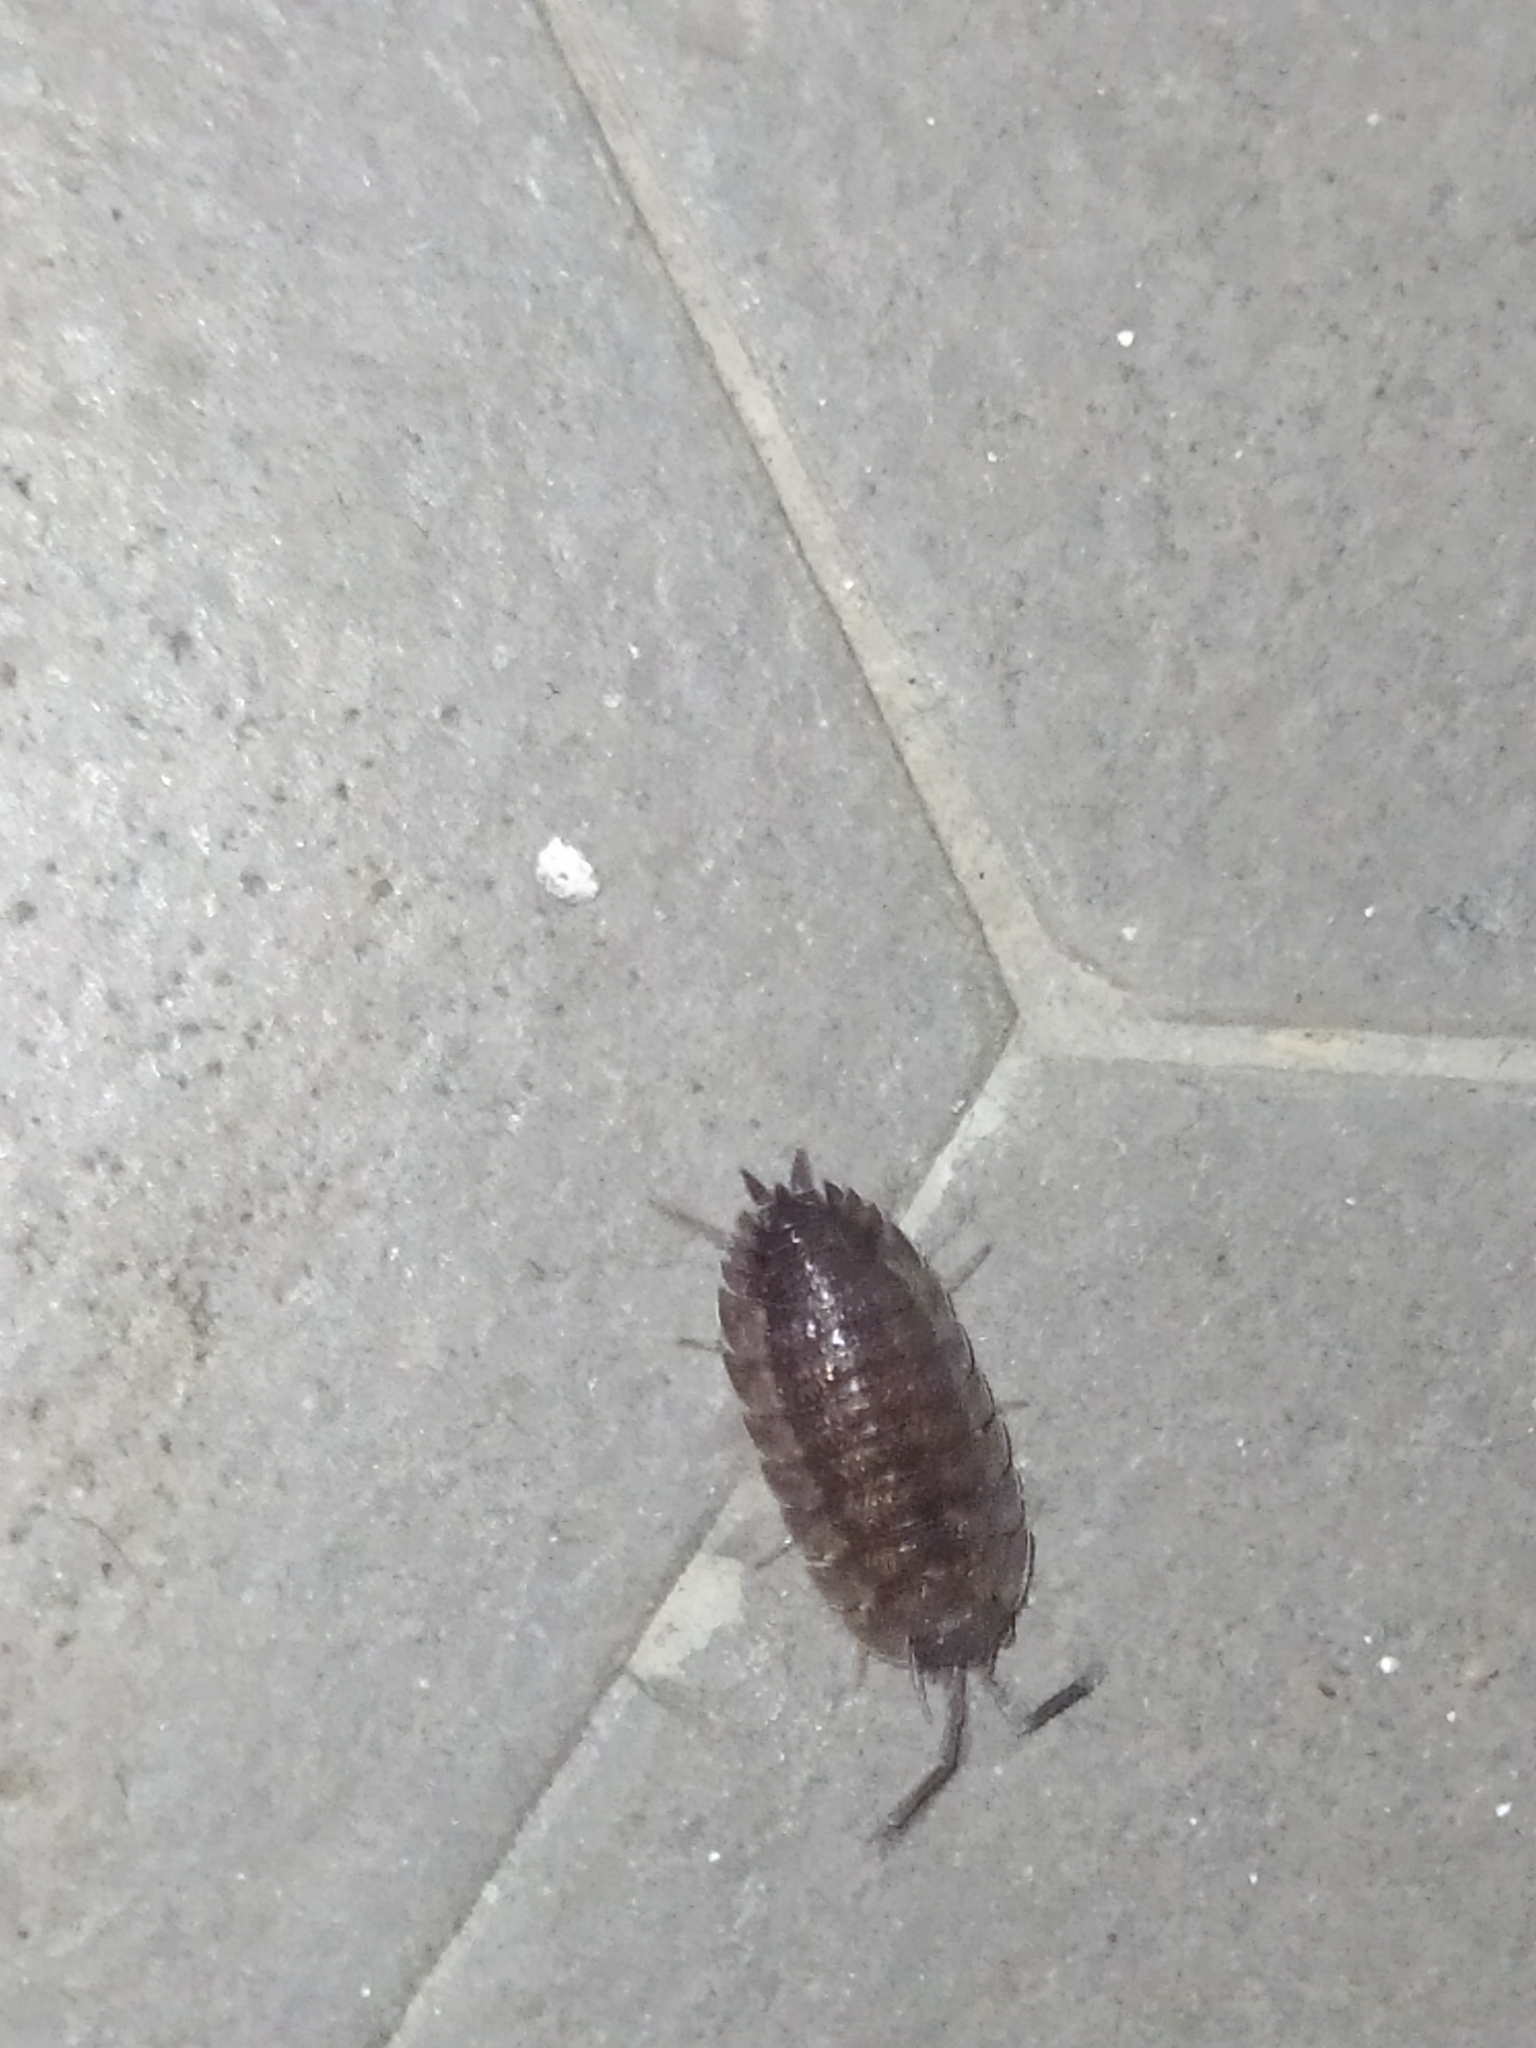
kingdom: Animalia
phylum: Arthropoda
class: Malacostraca
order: Isopoda
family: Porcellionidae
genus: Porcellio
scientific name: Porcellio scaber
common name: Common rough woodlouse
